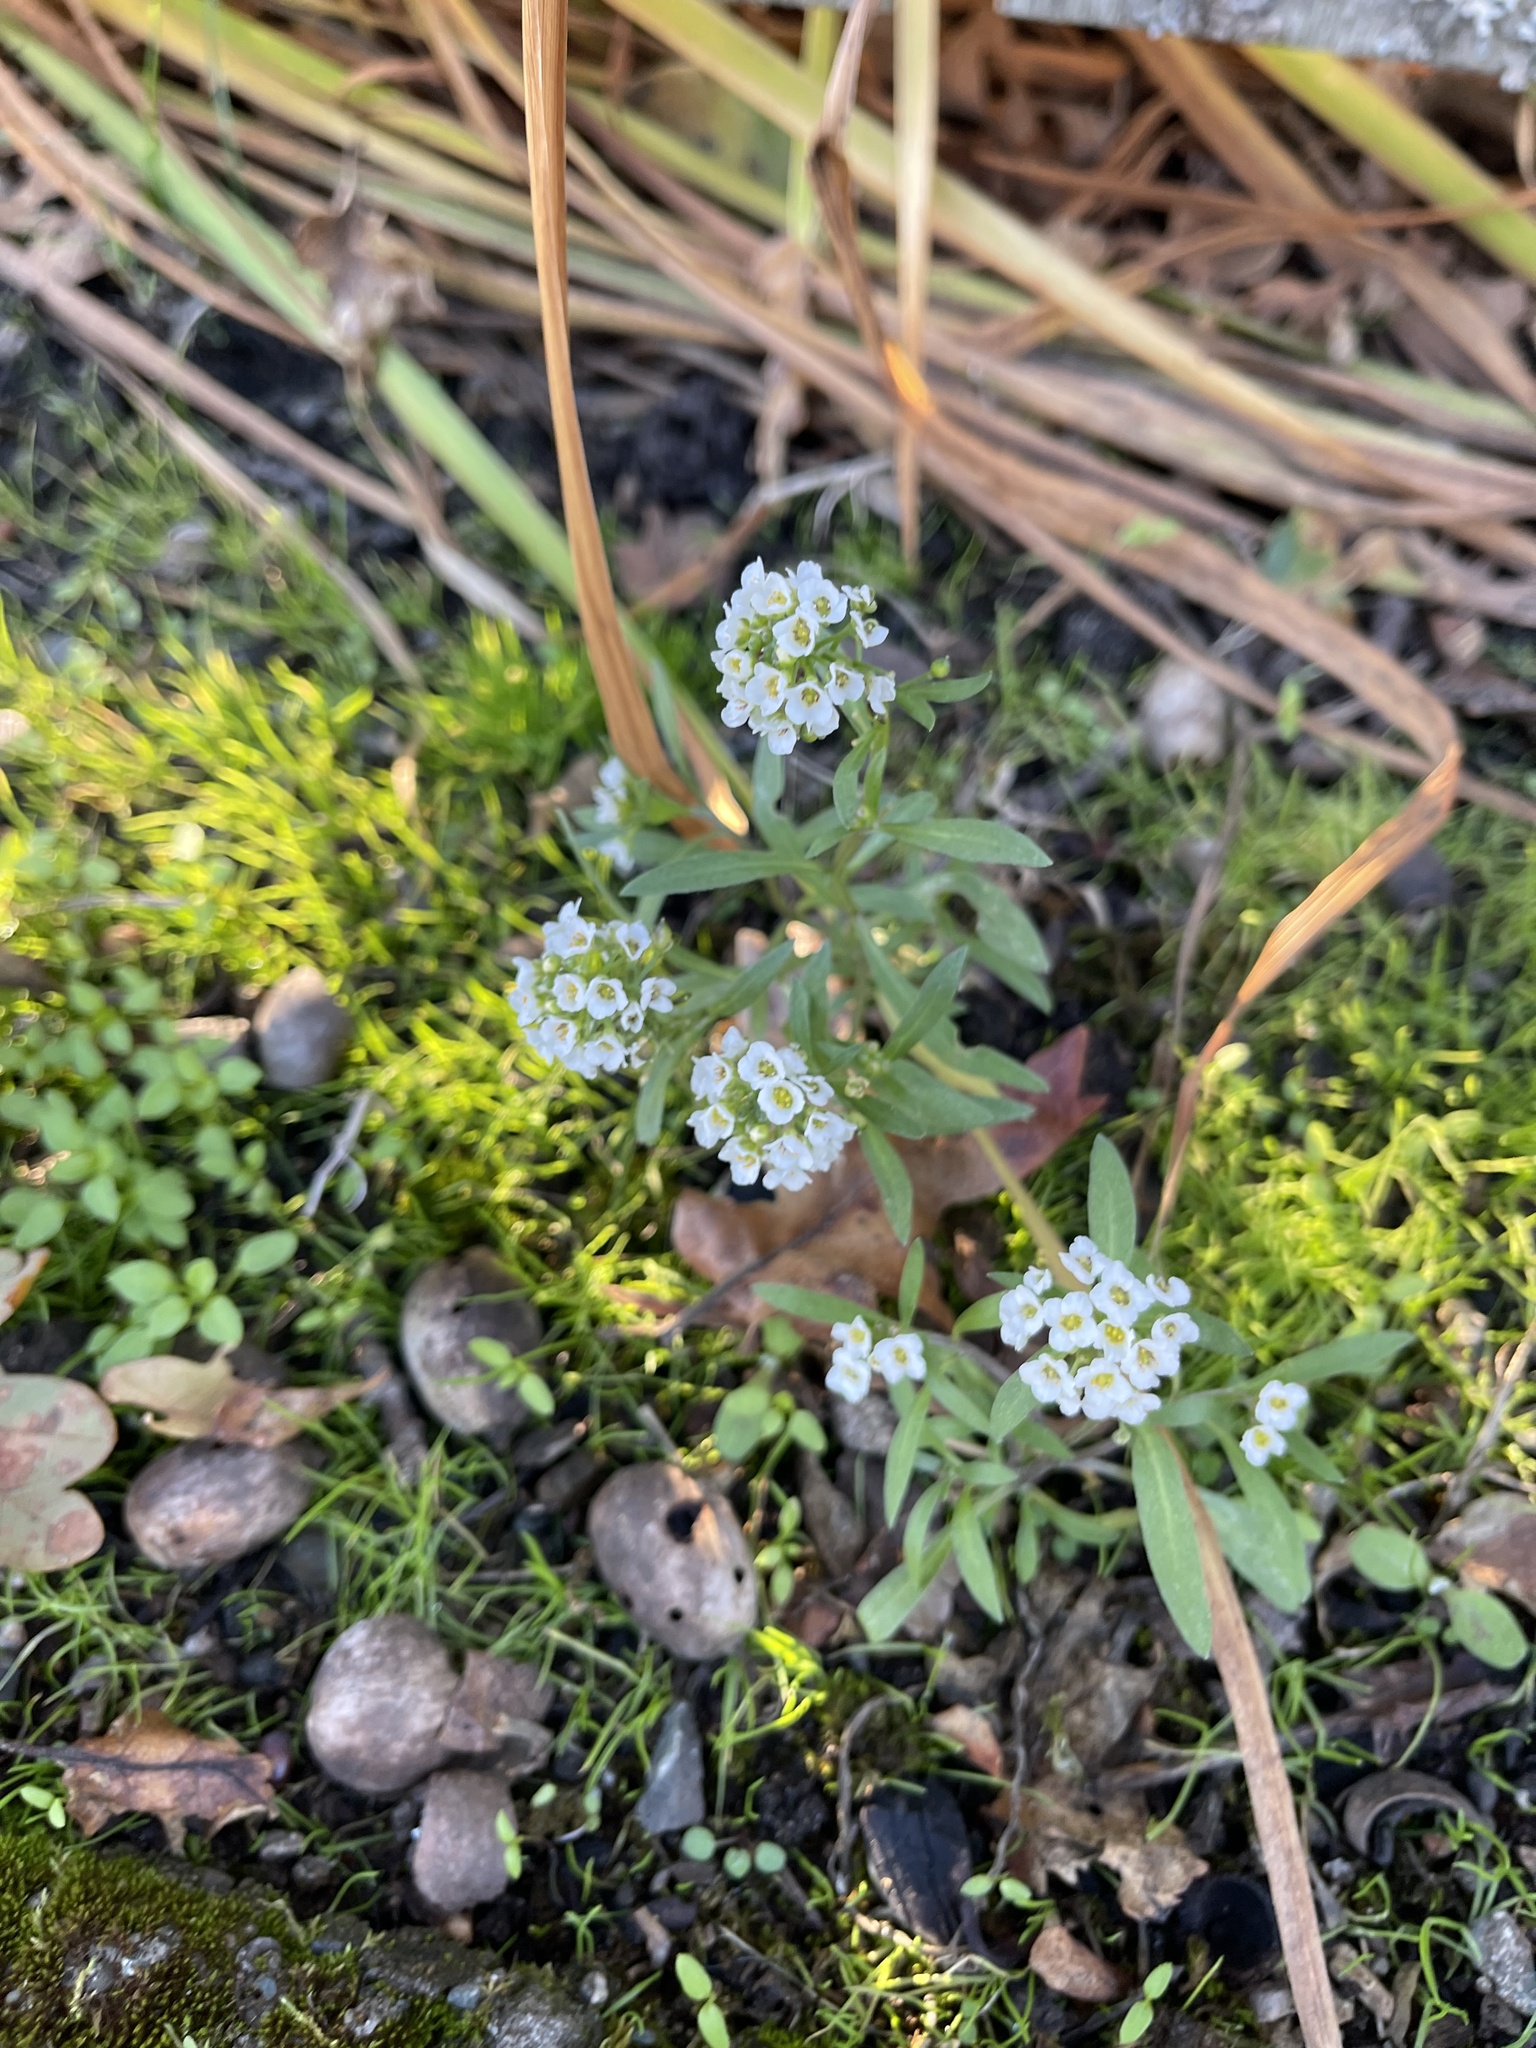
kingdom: Plantae
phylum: Tracheophyta
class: Magnoliopsida
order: Brassicales
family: Brassicaceae
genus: Lobularia
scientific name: Lobularia maritima
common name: Sweet alison
